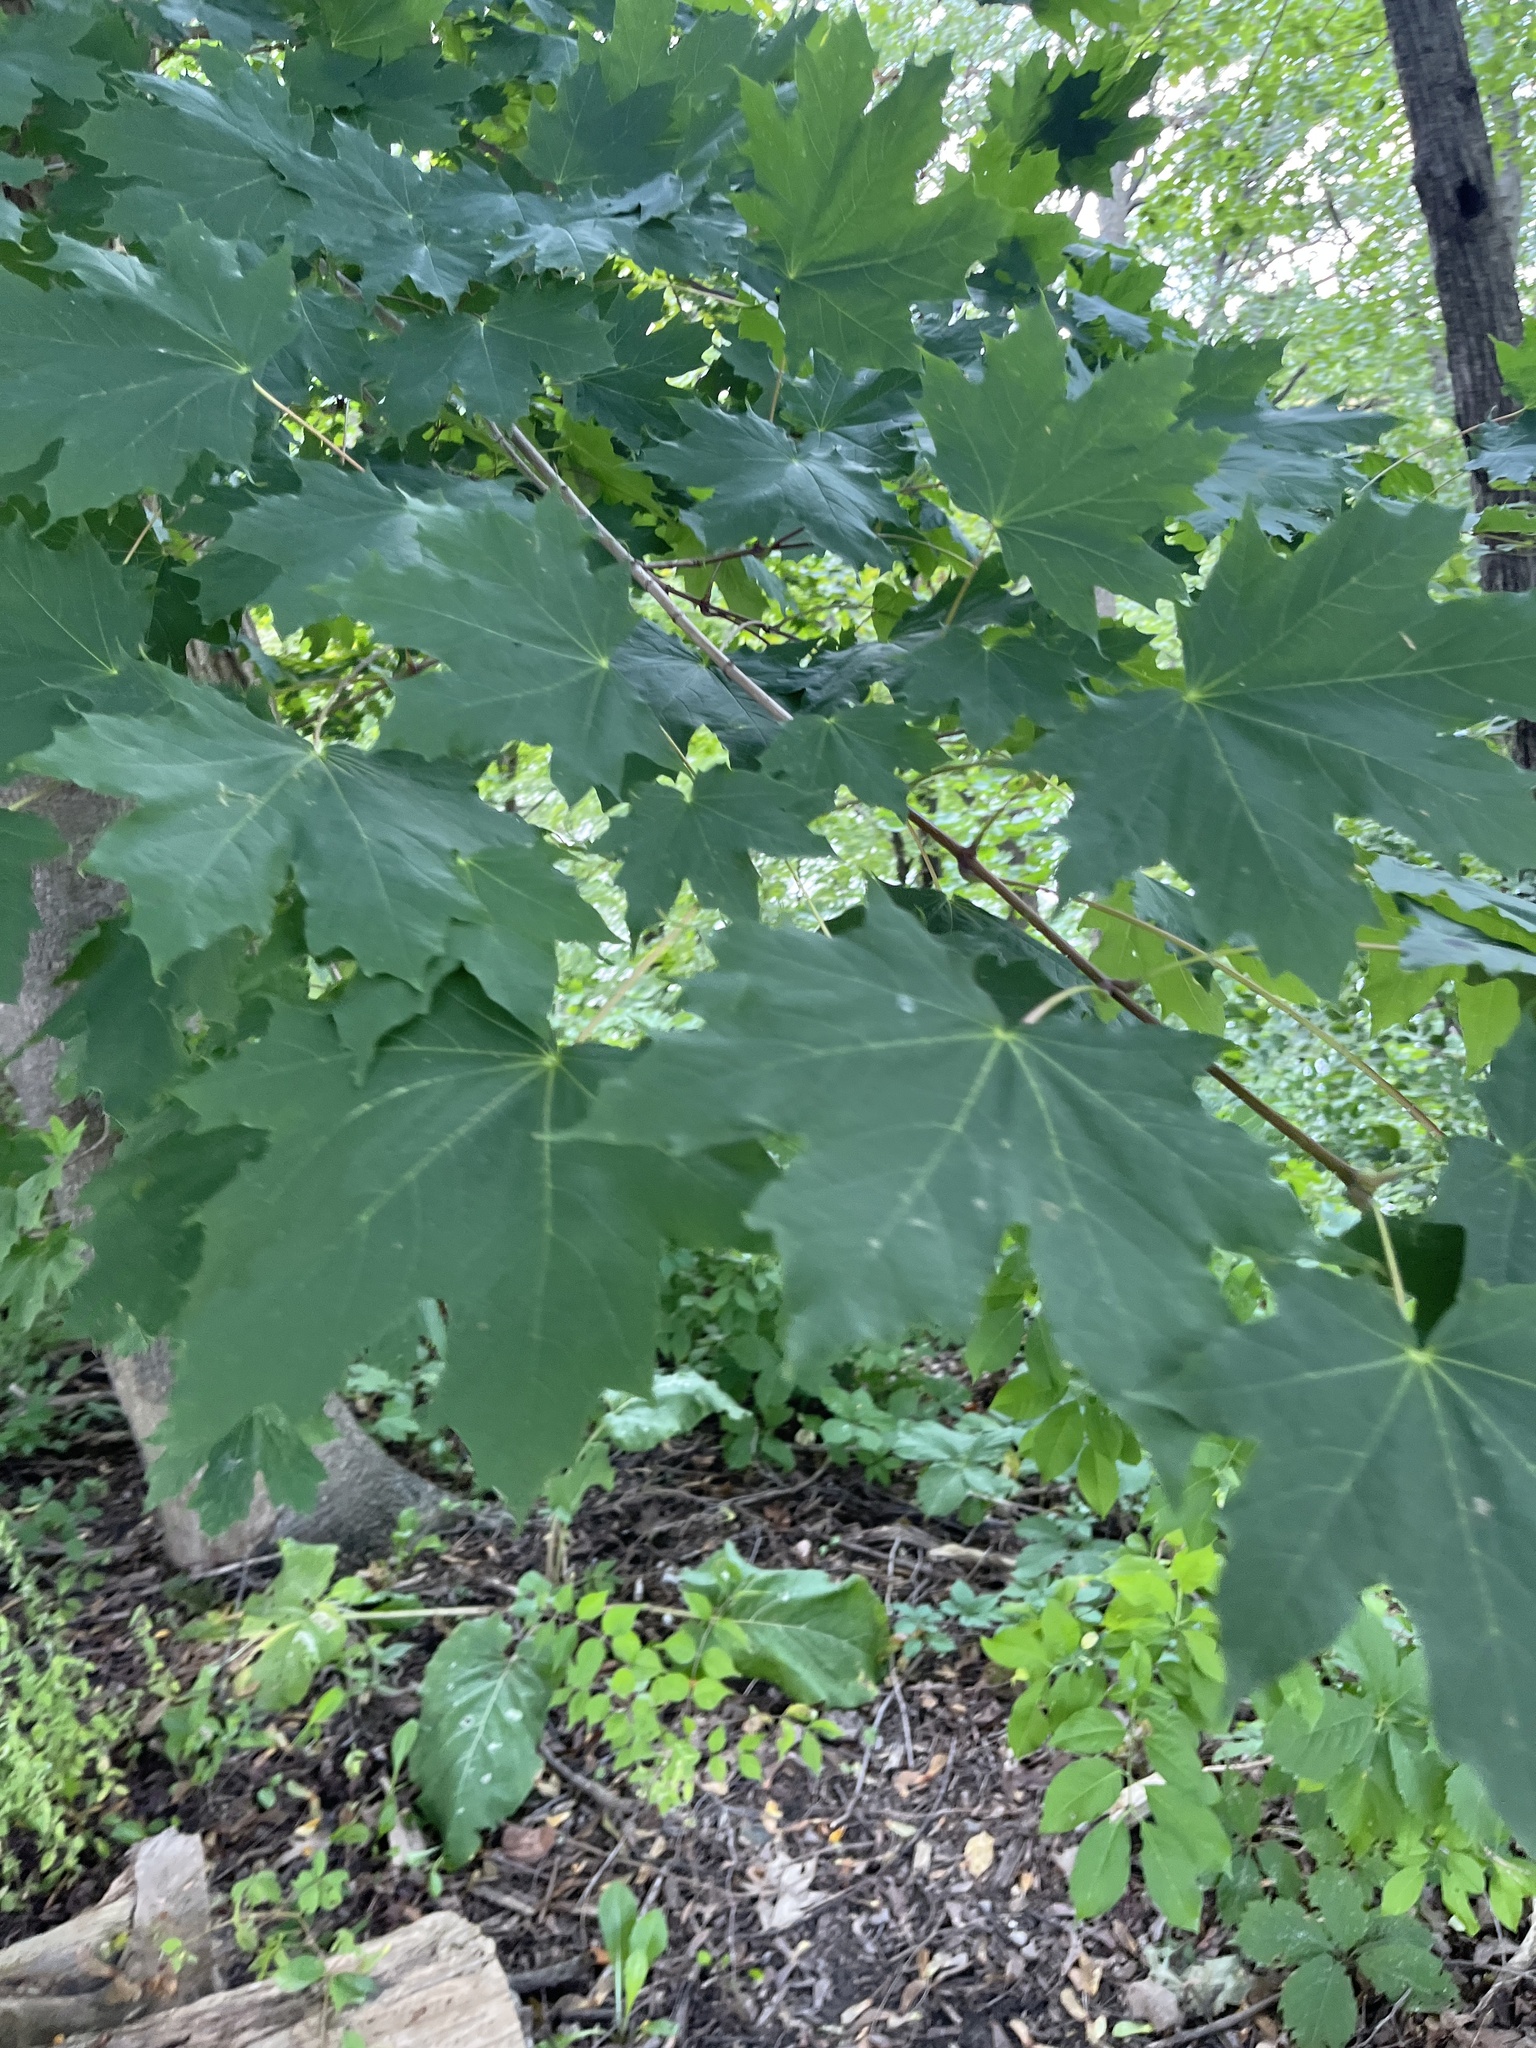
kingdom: Plantae
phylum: Tracheophyta
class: Magnoliopsida
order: Sapindales
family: Sapindaceae
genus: Acer
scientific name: Acer platanoides
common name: Norway maple
